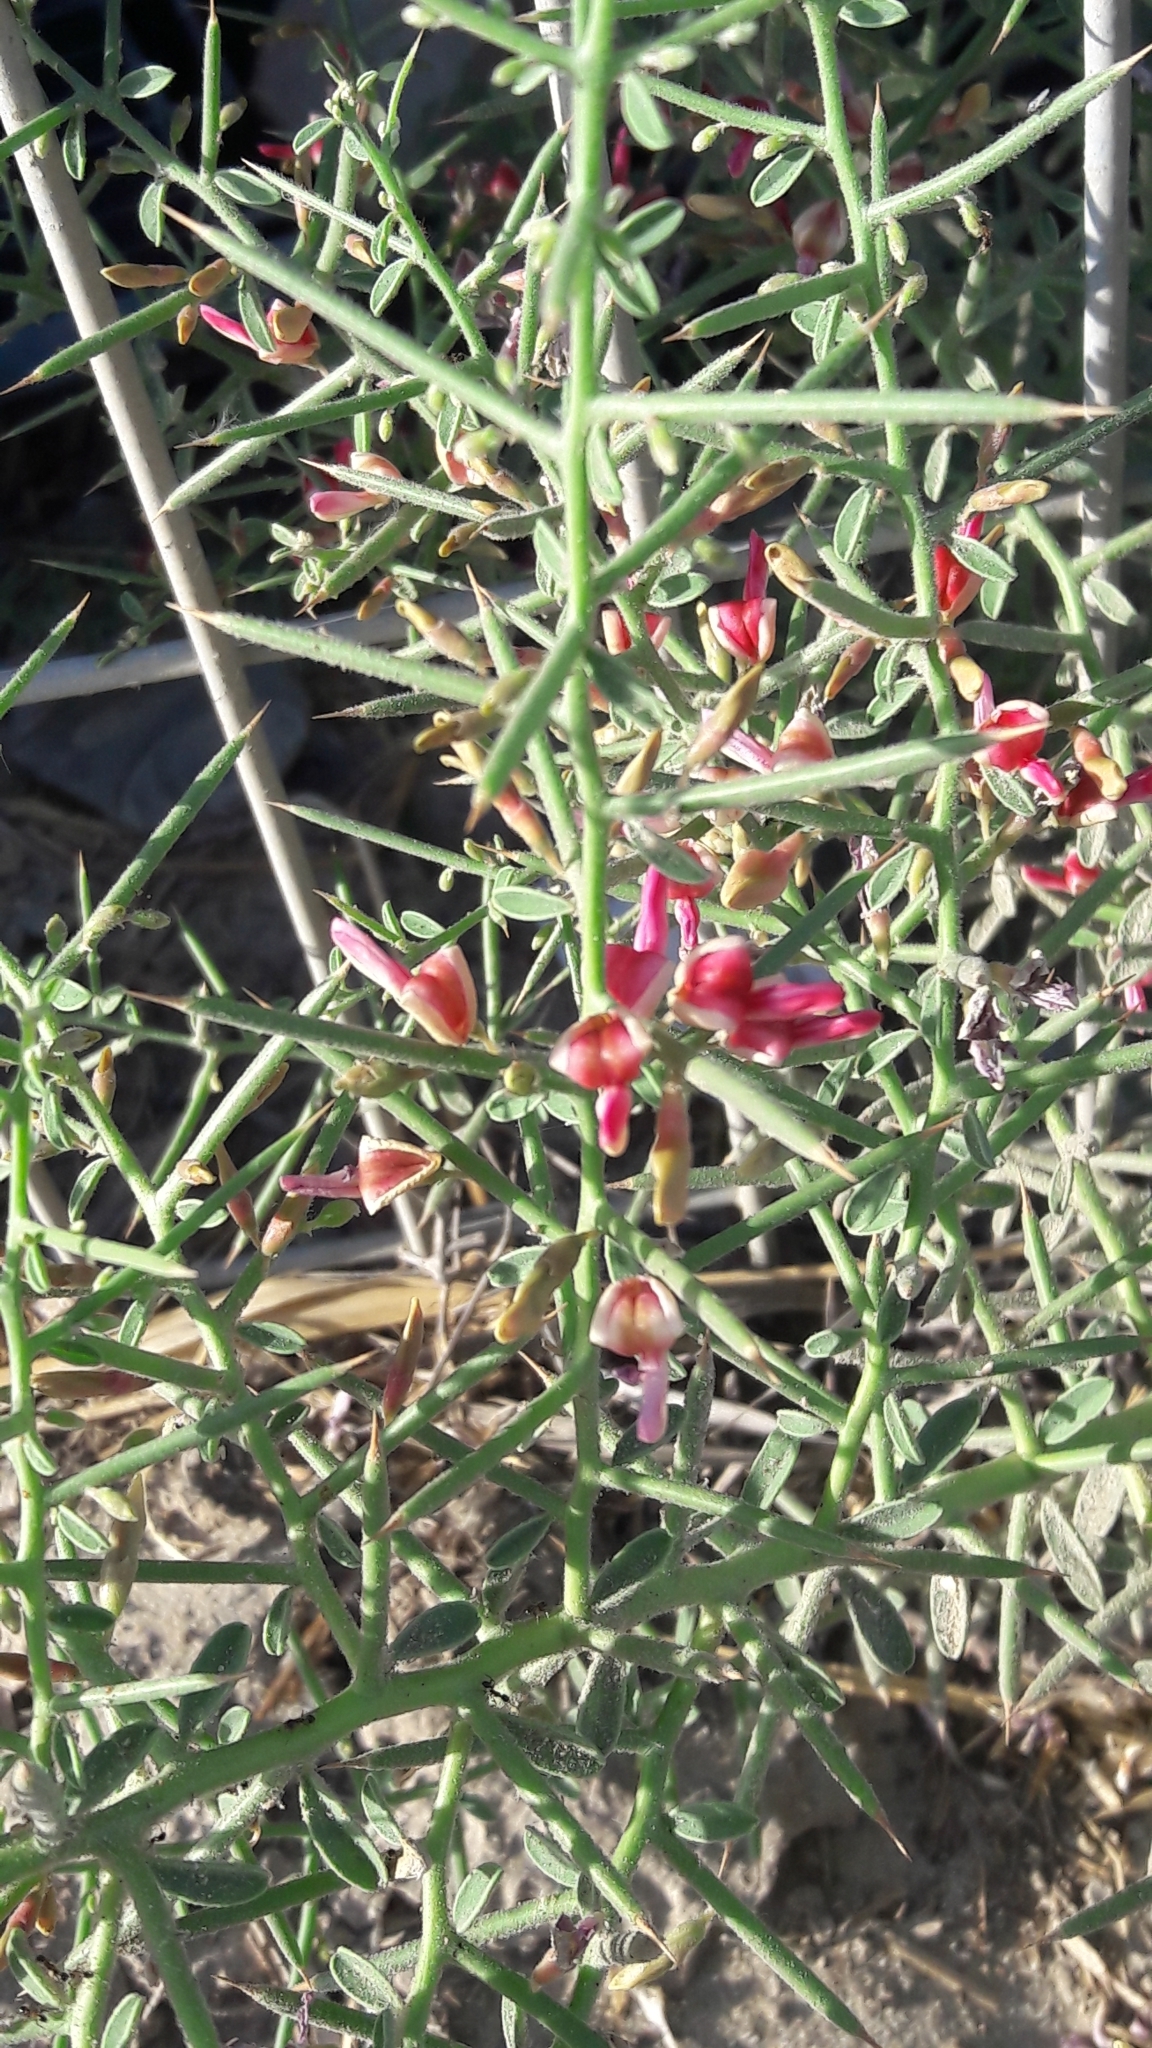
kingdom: Plantae
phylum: Tracheophyta
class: Magnoliopsida
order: Fabales
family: Fabaceae
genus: Alhagi
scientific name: Alhagi graecorum
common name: Persian mannaplant
